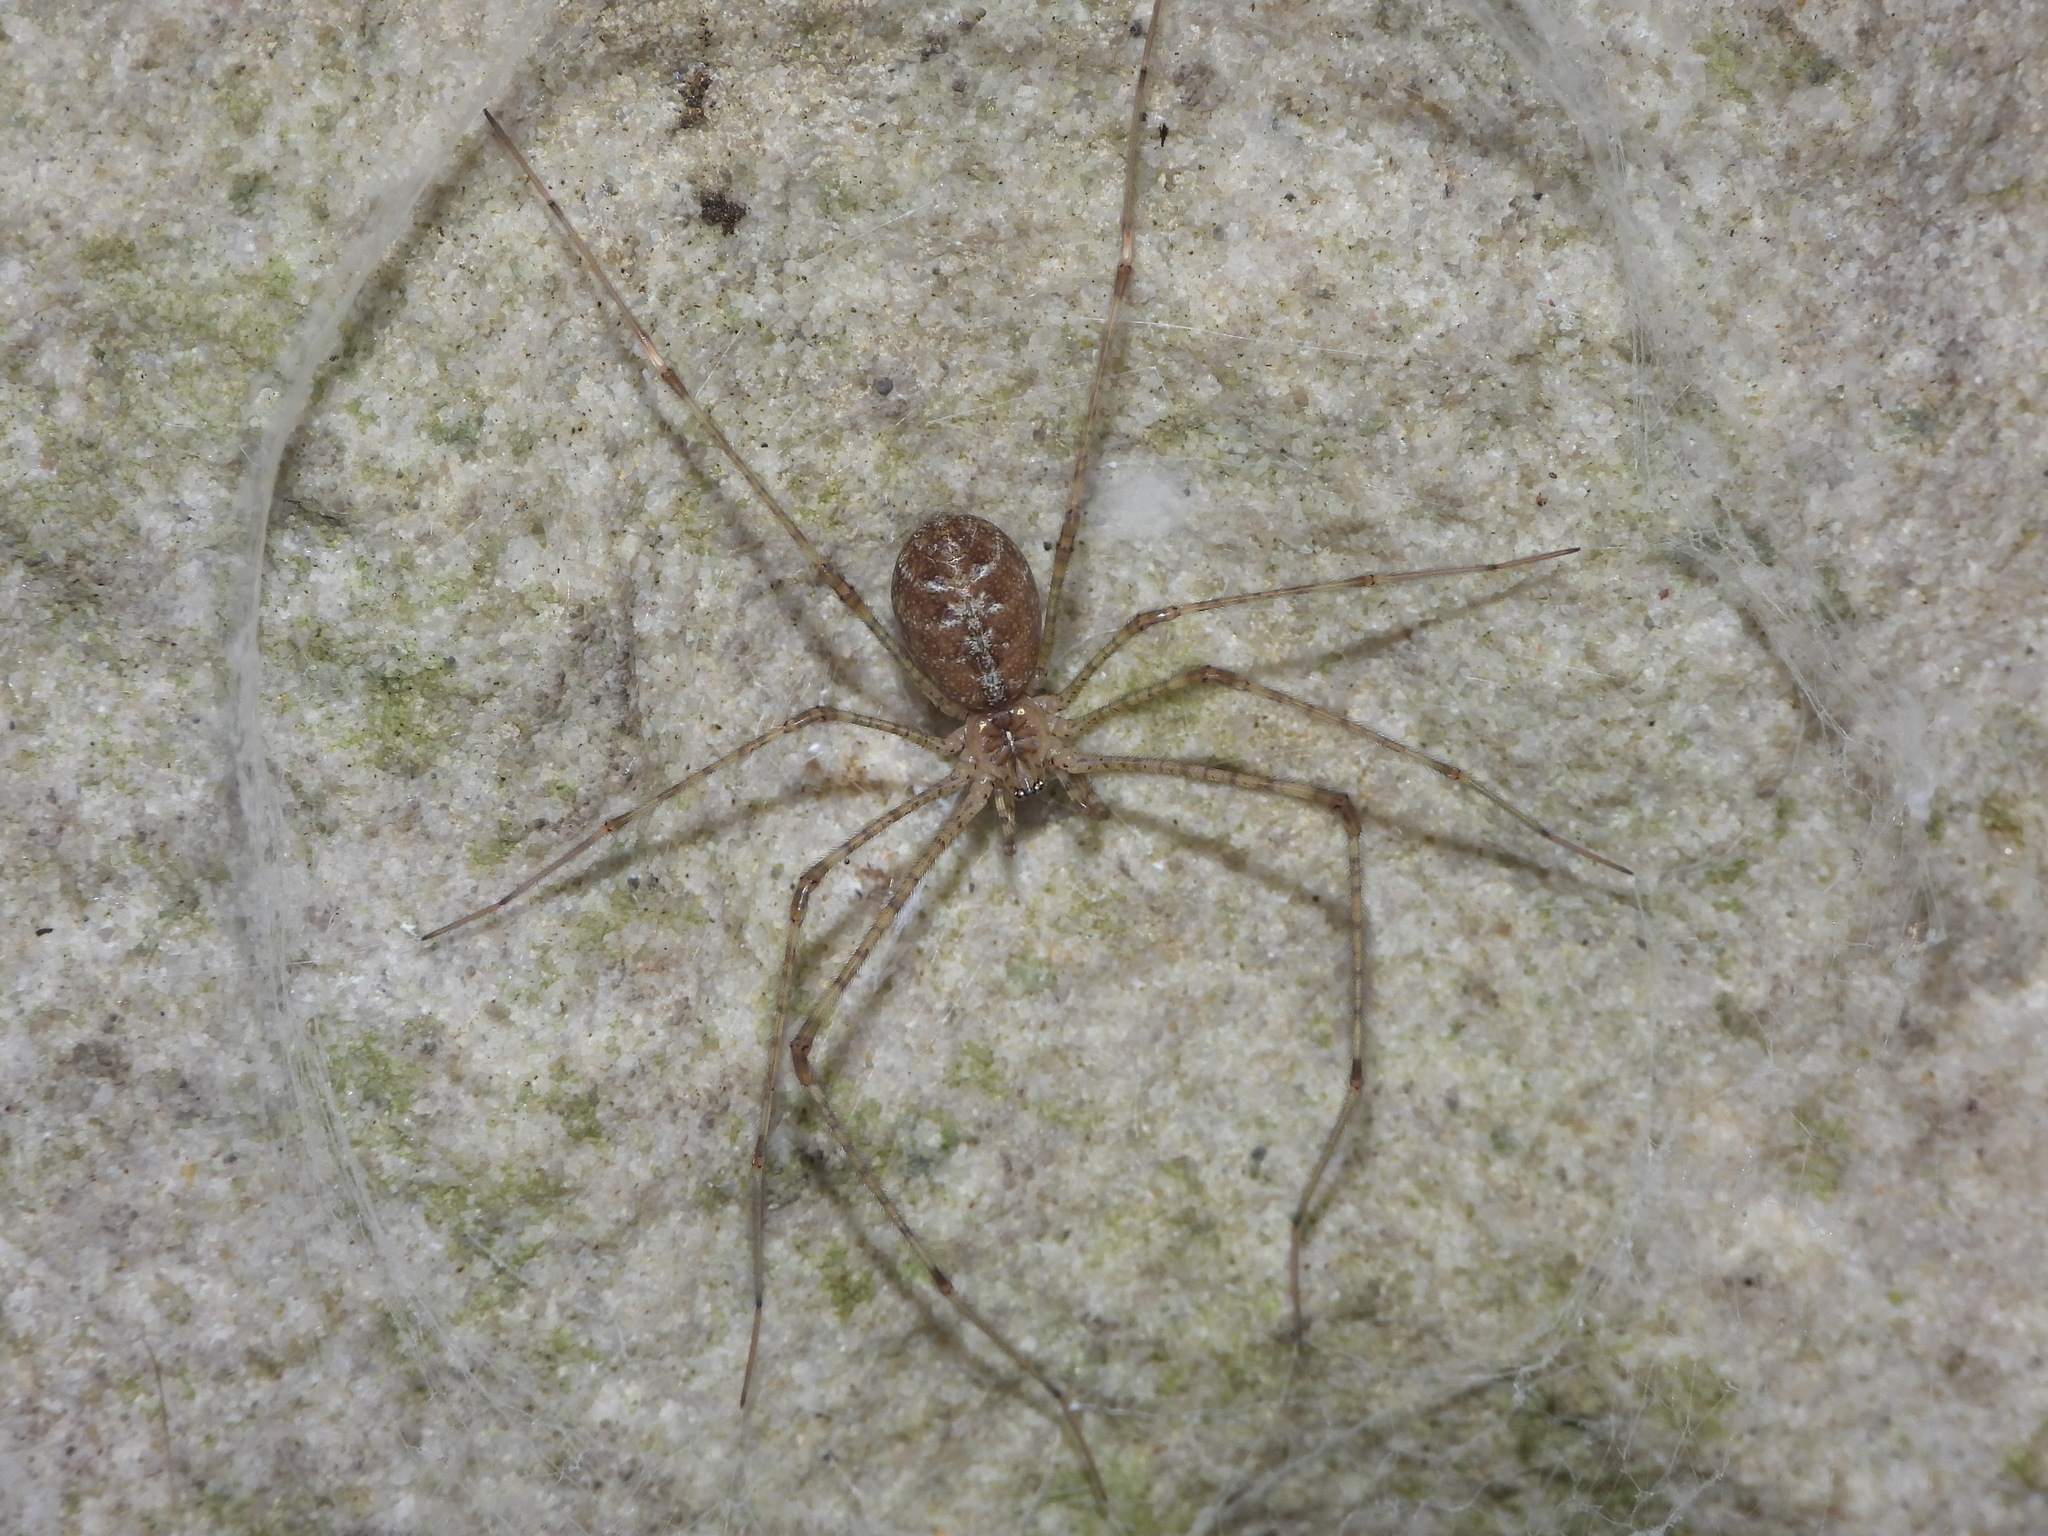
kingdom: Animalia
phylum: Arthropoda
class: Arachnida
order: Araneae
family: Hypochilidae
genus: Hypochilus
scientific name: Hypochilus thorelli
